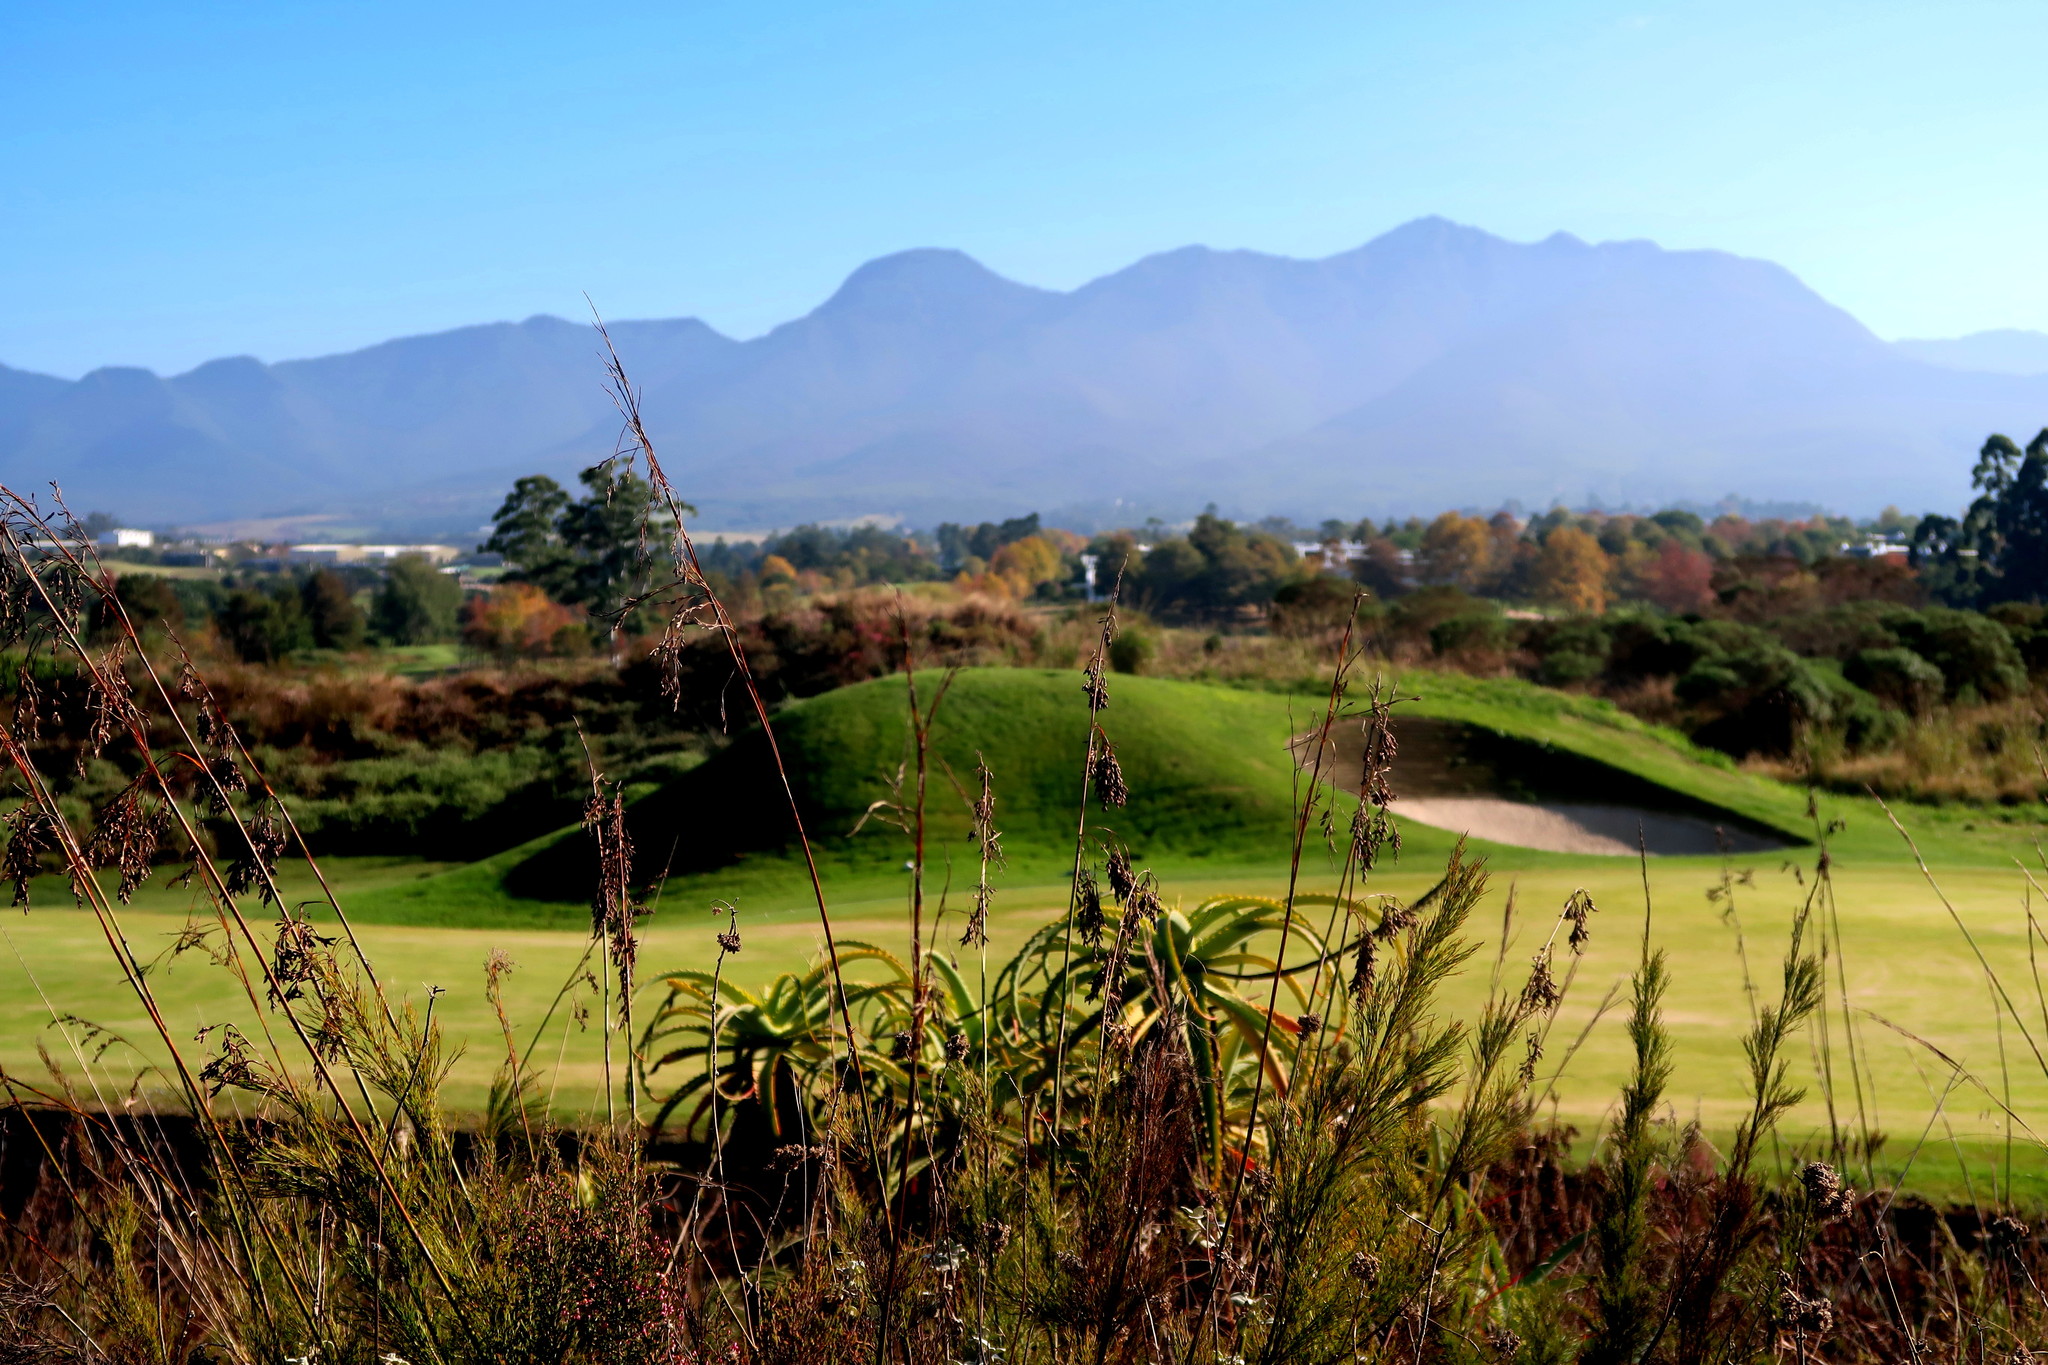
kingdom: Plantae
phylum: Tracheophyta
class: Liliopsida
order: Asparagales
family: Asphodelaceae
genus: Aloe
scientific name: Aloe arborescens
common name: Candelabra aloe
